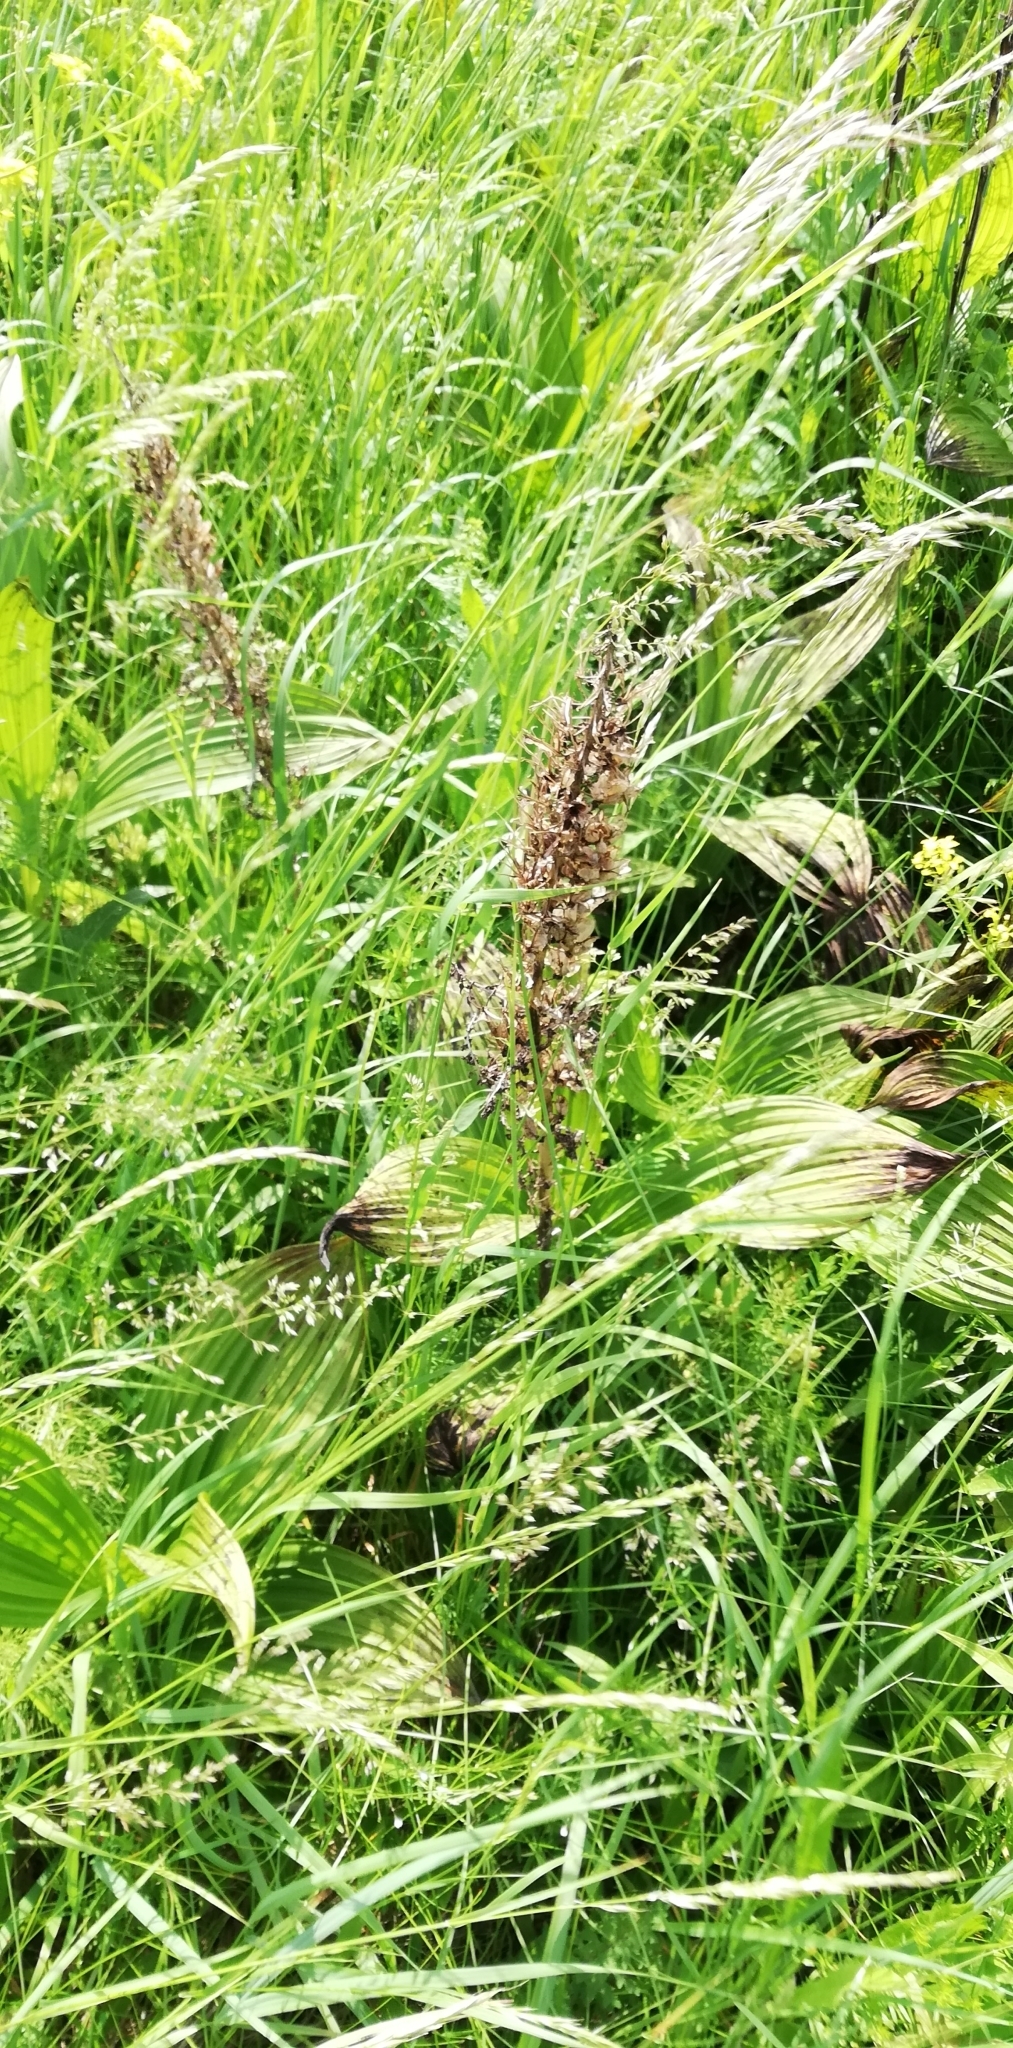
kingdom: Plantae
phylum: Tracheophyta
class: Liliopsida
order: Liliales
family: Melanthiaceae
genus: Veratrum
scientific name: Veratrum nigrum
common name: Black veratrum
